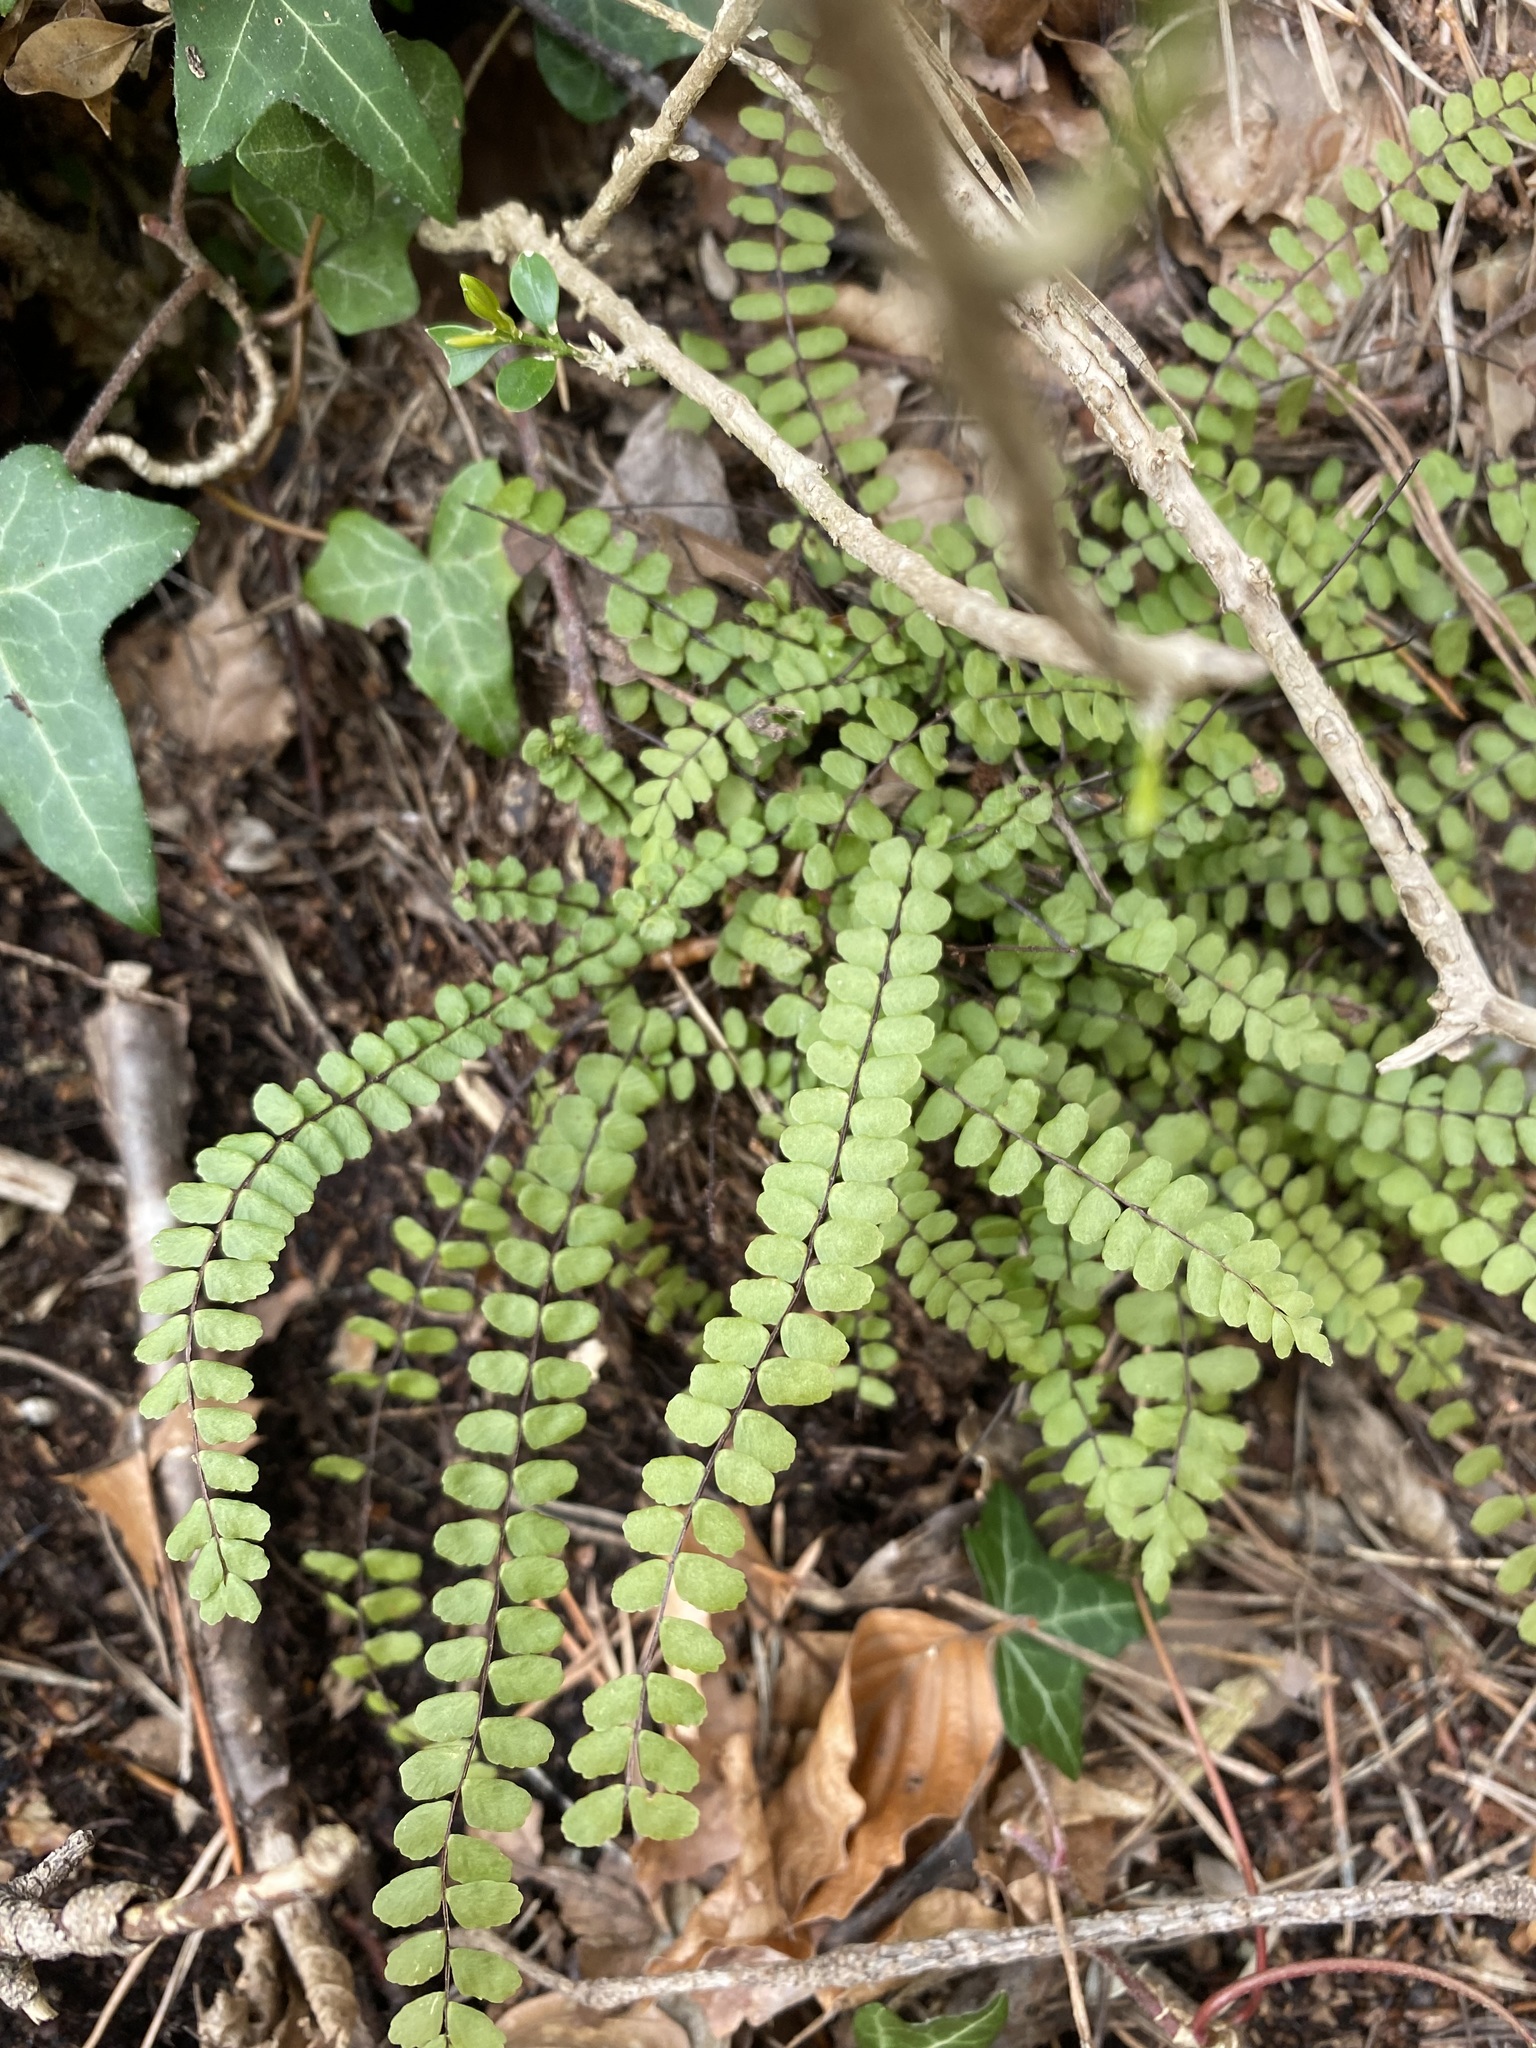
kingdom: Plantae
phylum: Tracheophyta
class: Polypodiopsida
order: Polypodiales
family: Aspleniaceae
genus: Asplenium
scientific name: Asplenium trichomanes
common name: Maidenhair spleenwort
